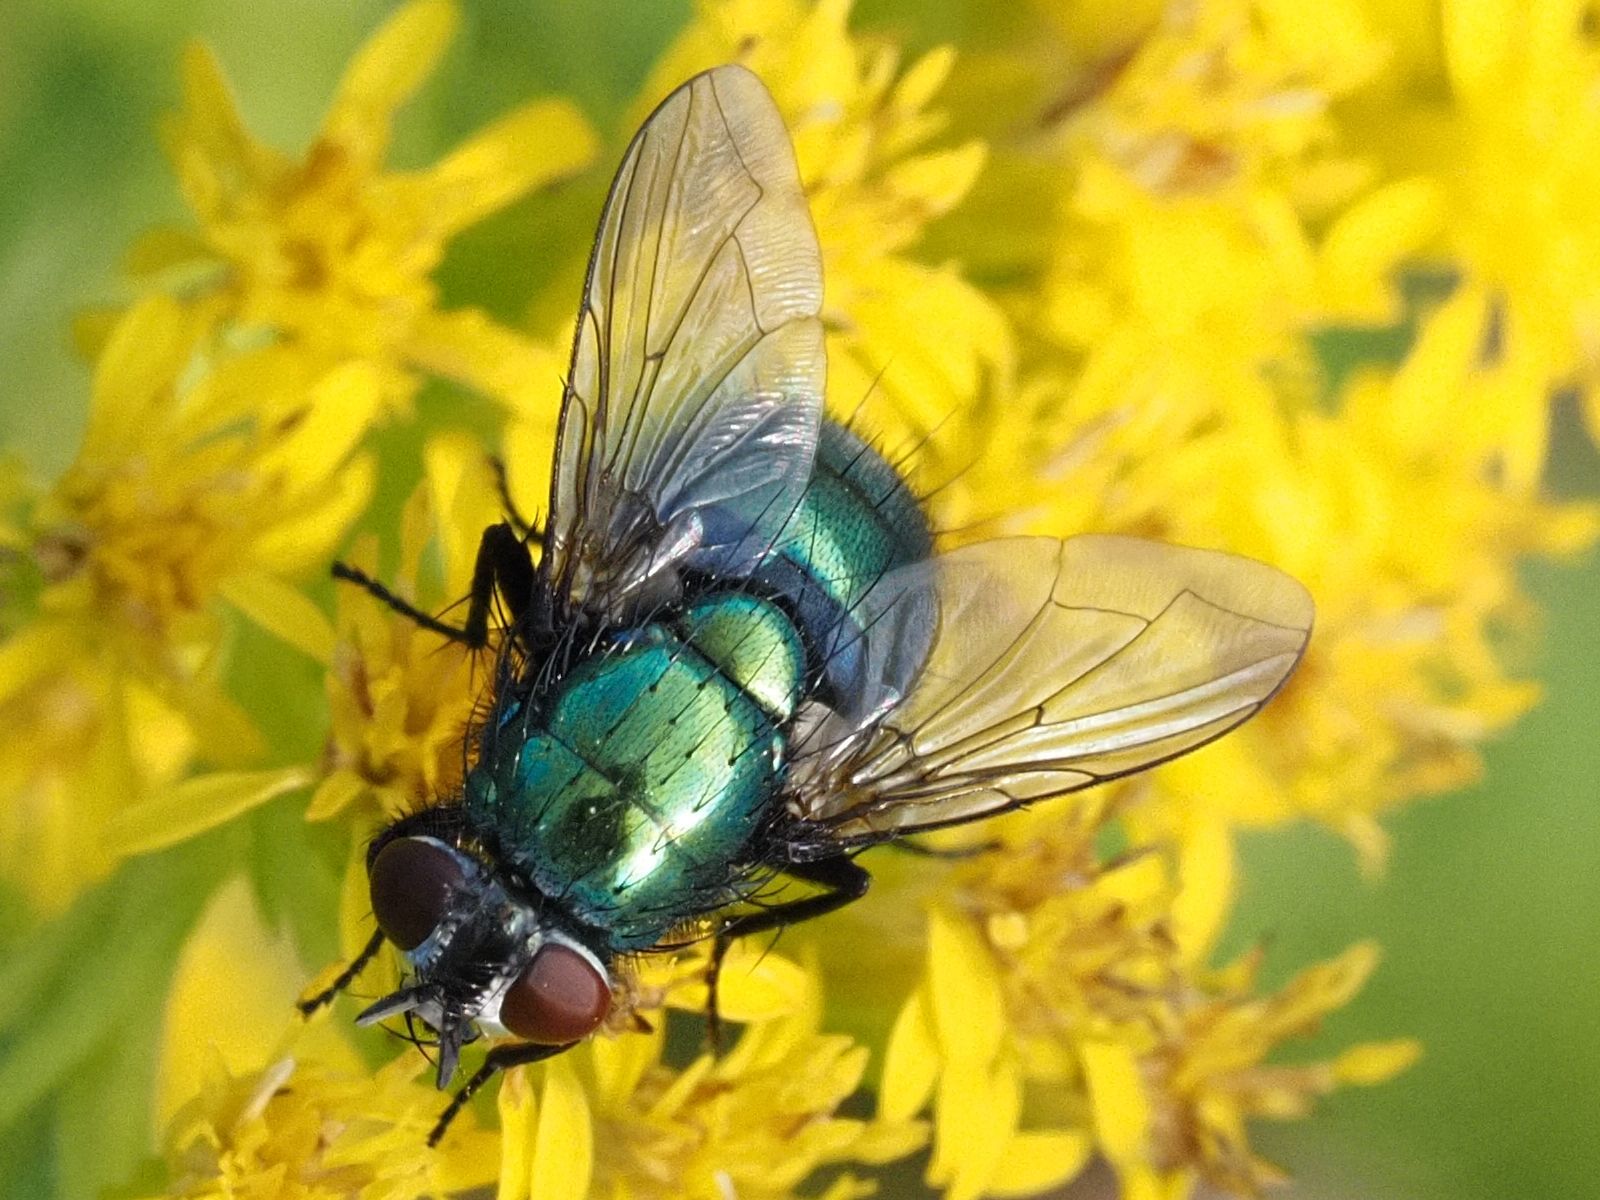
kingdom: Animalia
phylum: Arthropoda
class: Insecta
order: Diptera
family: Calliphoridae
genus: Lucilia
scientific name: Lucilia silvarum
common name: Marsh greenbottle
